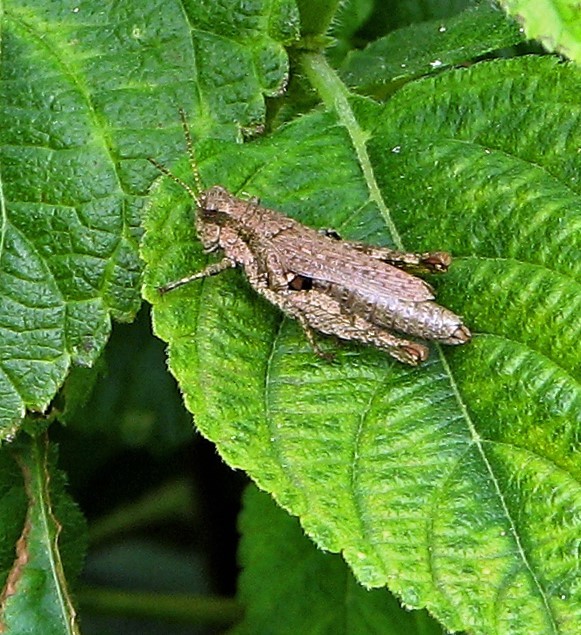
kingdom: Animalia
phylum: Arthropoda
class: Insecta
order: Orthoptera
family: Acrididae
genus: Ronderosia
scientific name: Ronderosia bergii
